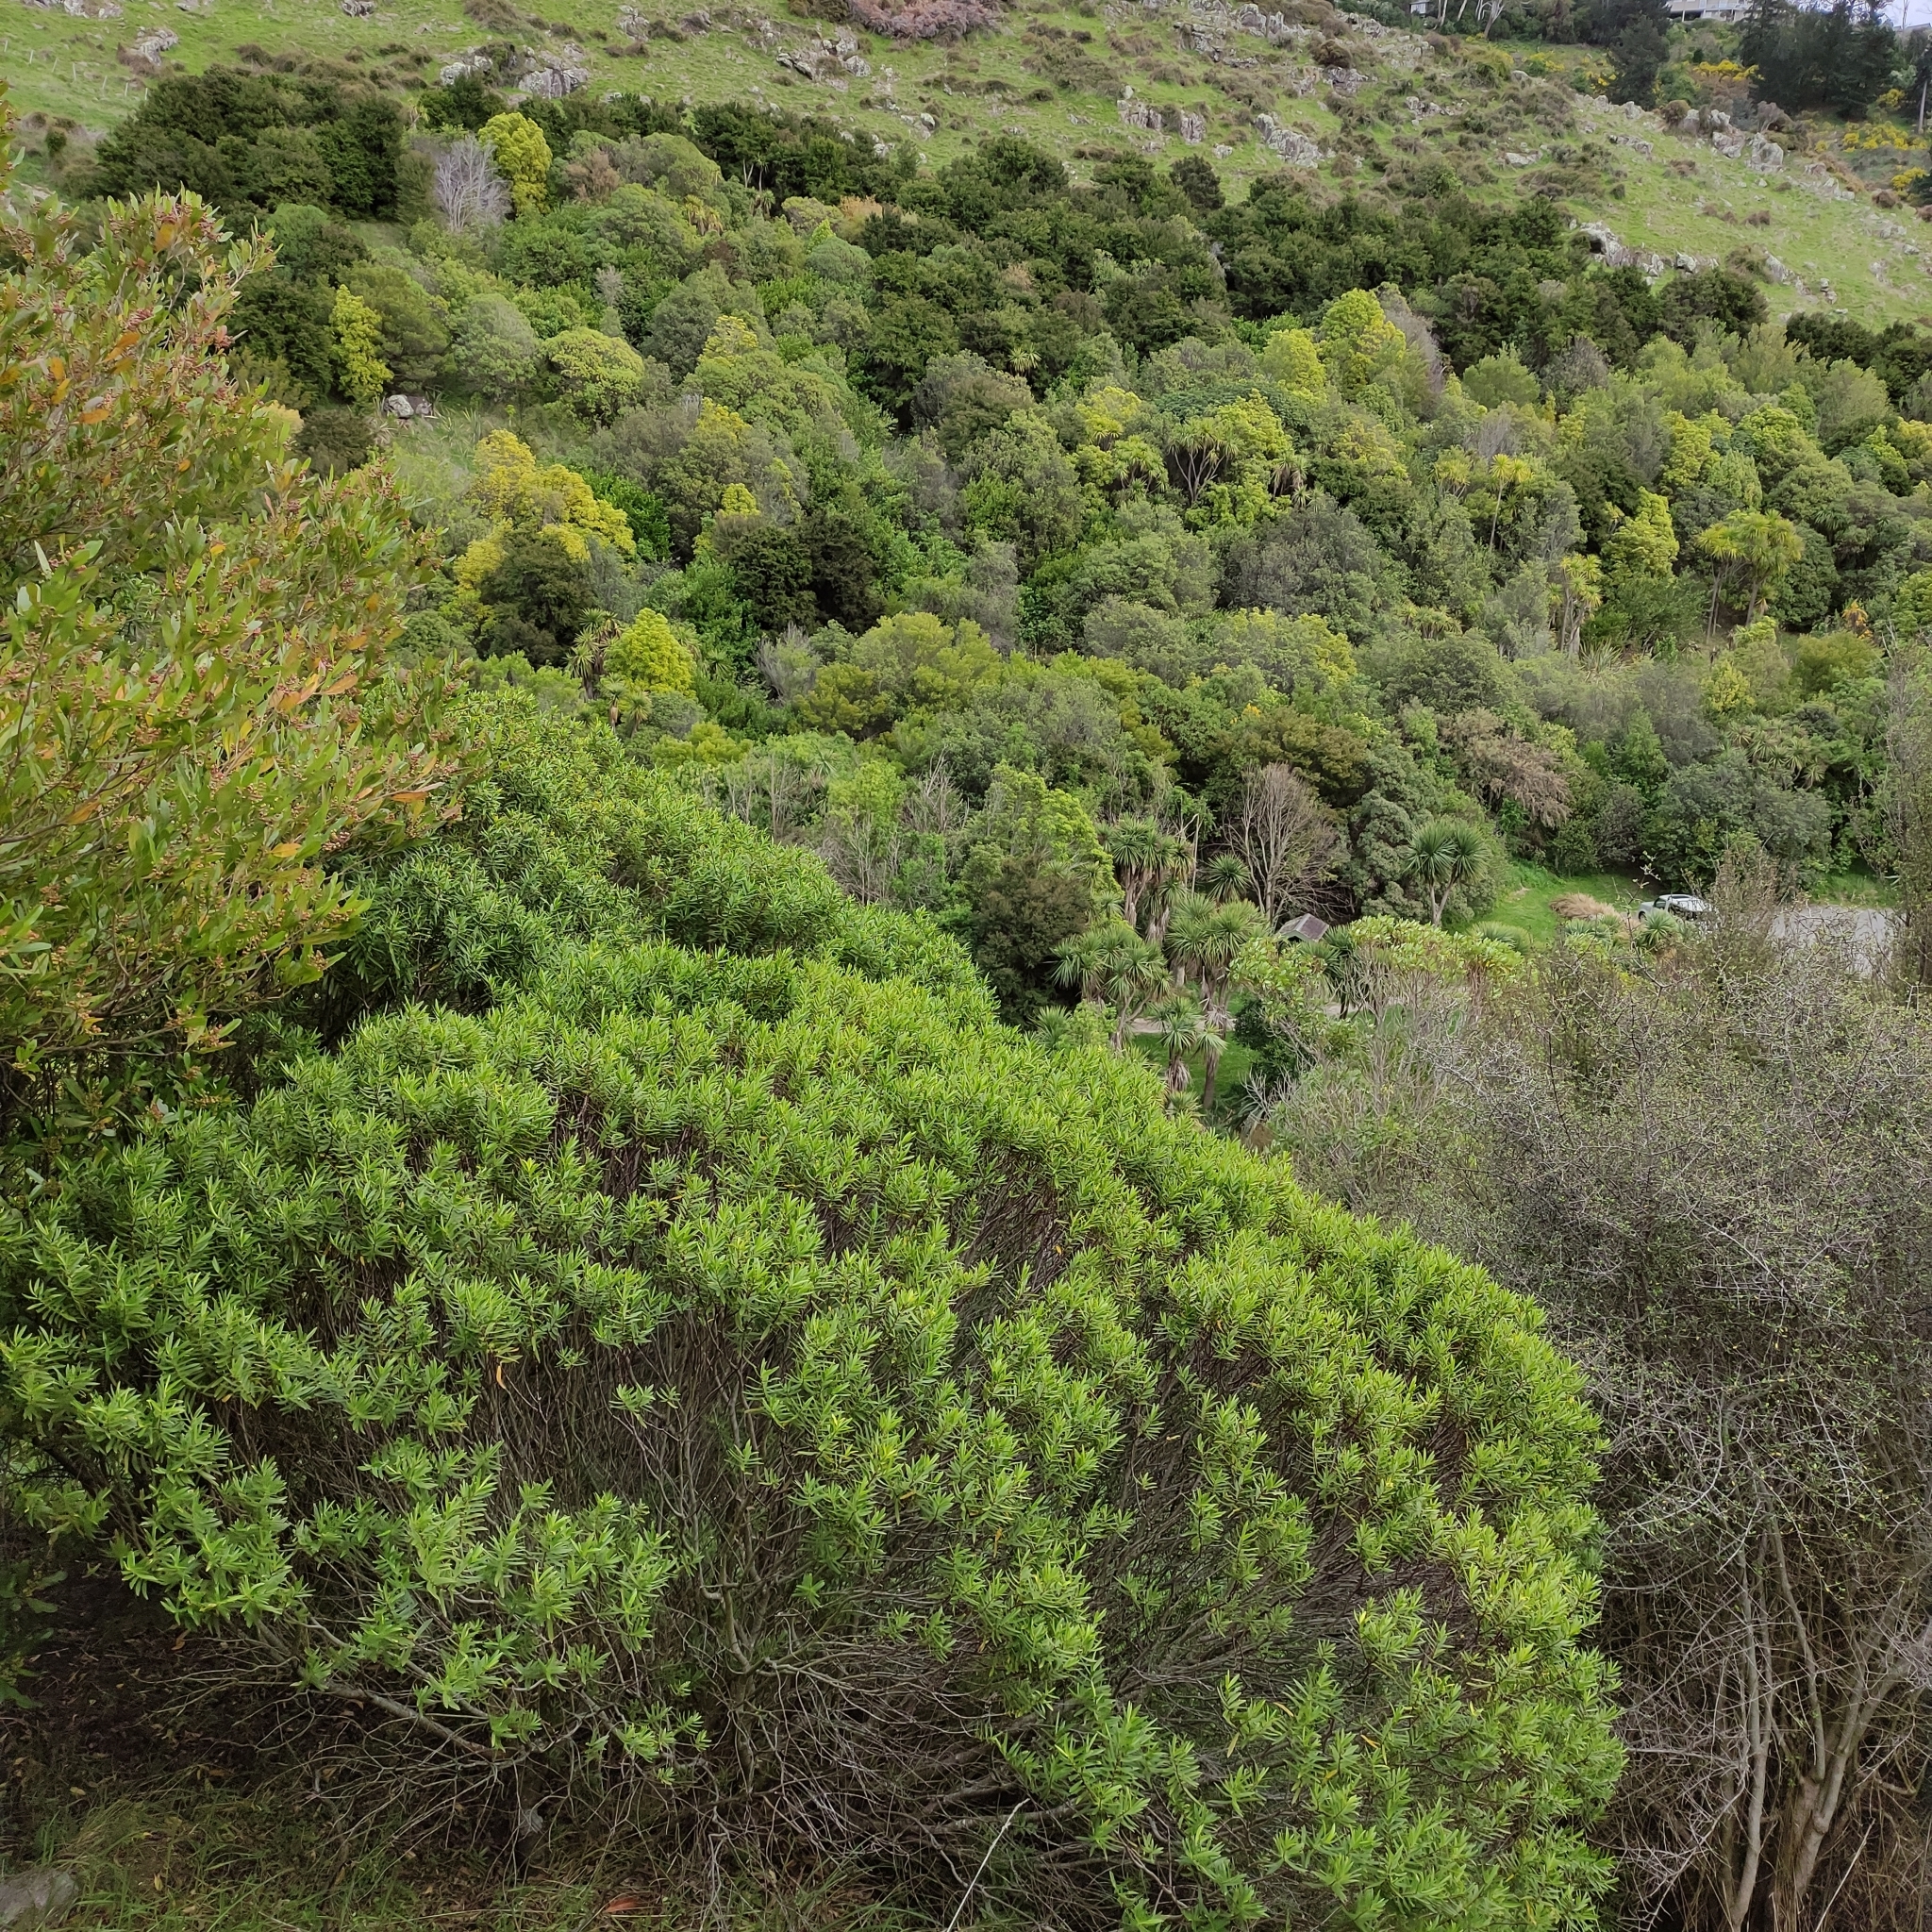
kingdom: Plantae
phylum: Tracheophyta
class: Magnoliopsida
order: Lamiales
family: Plantaginaceae
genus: Veronica
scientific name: Veronica strictissima
